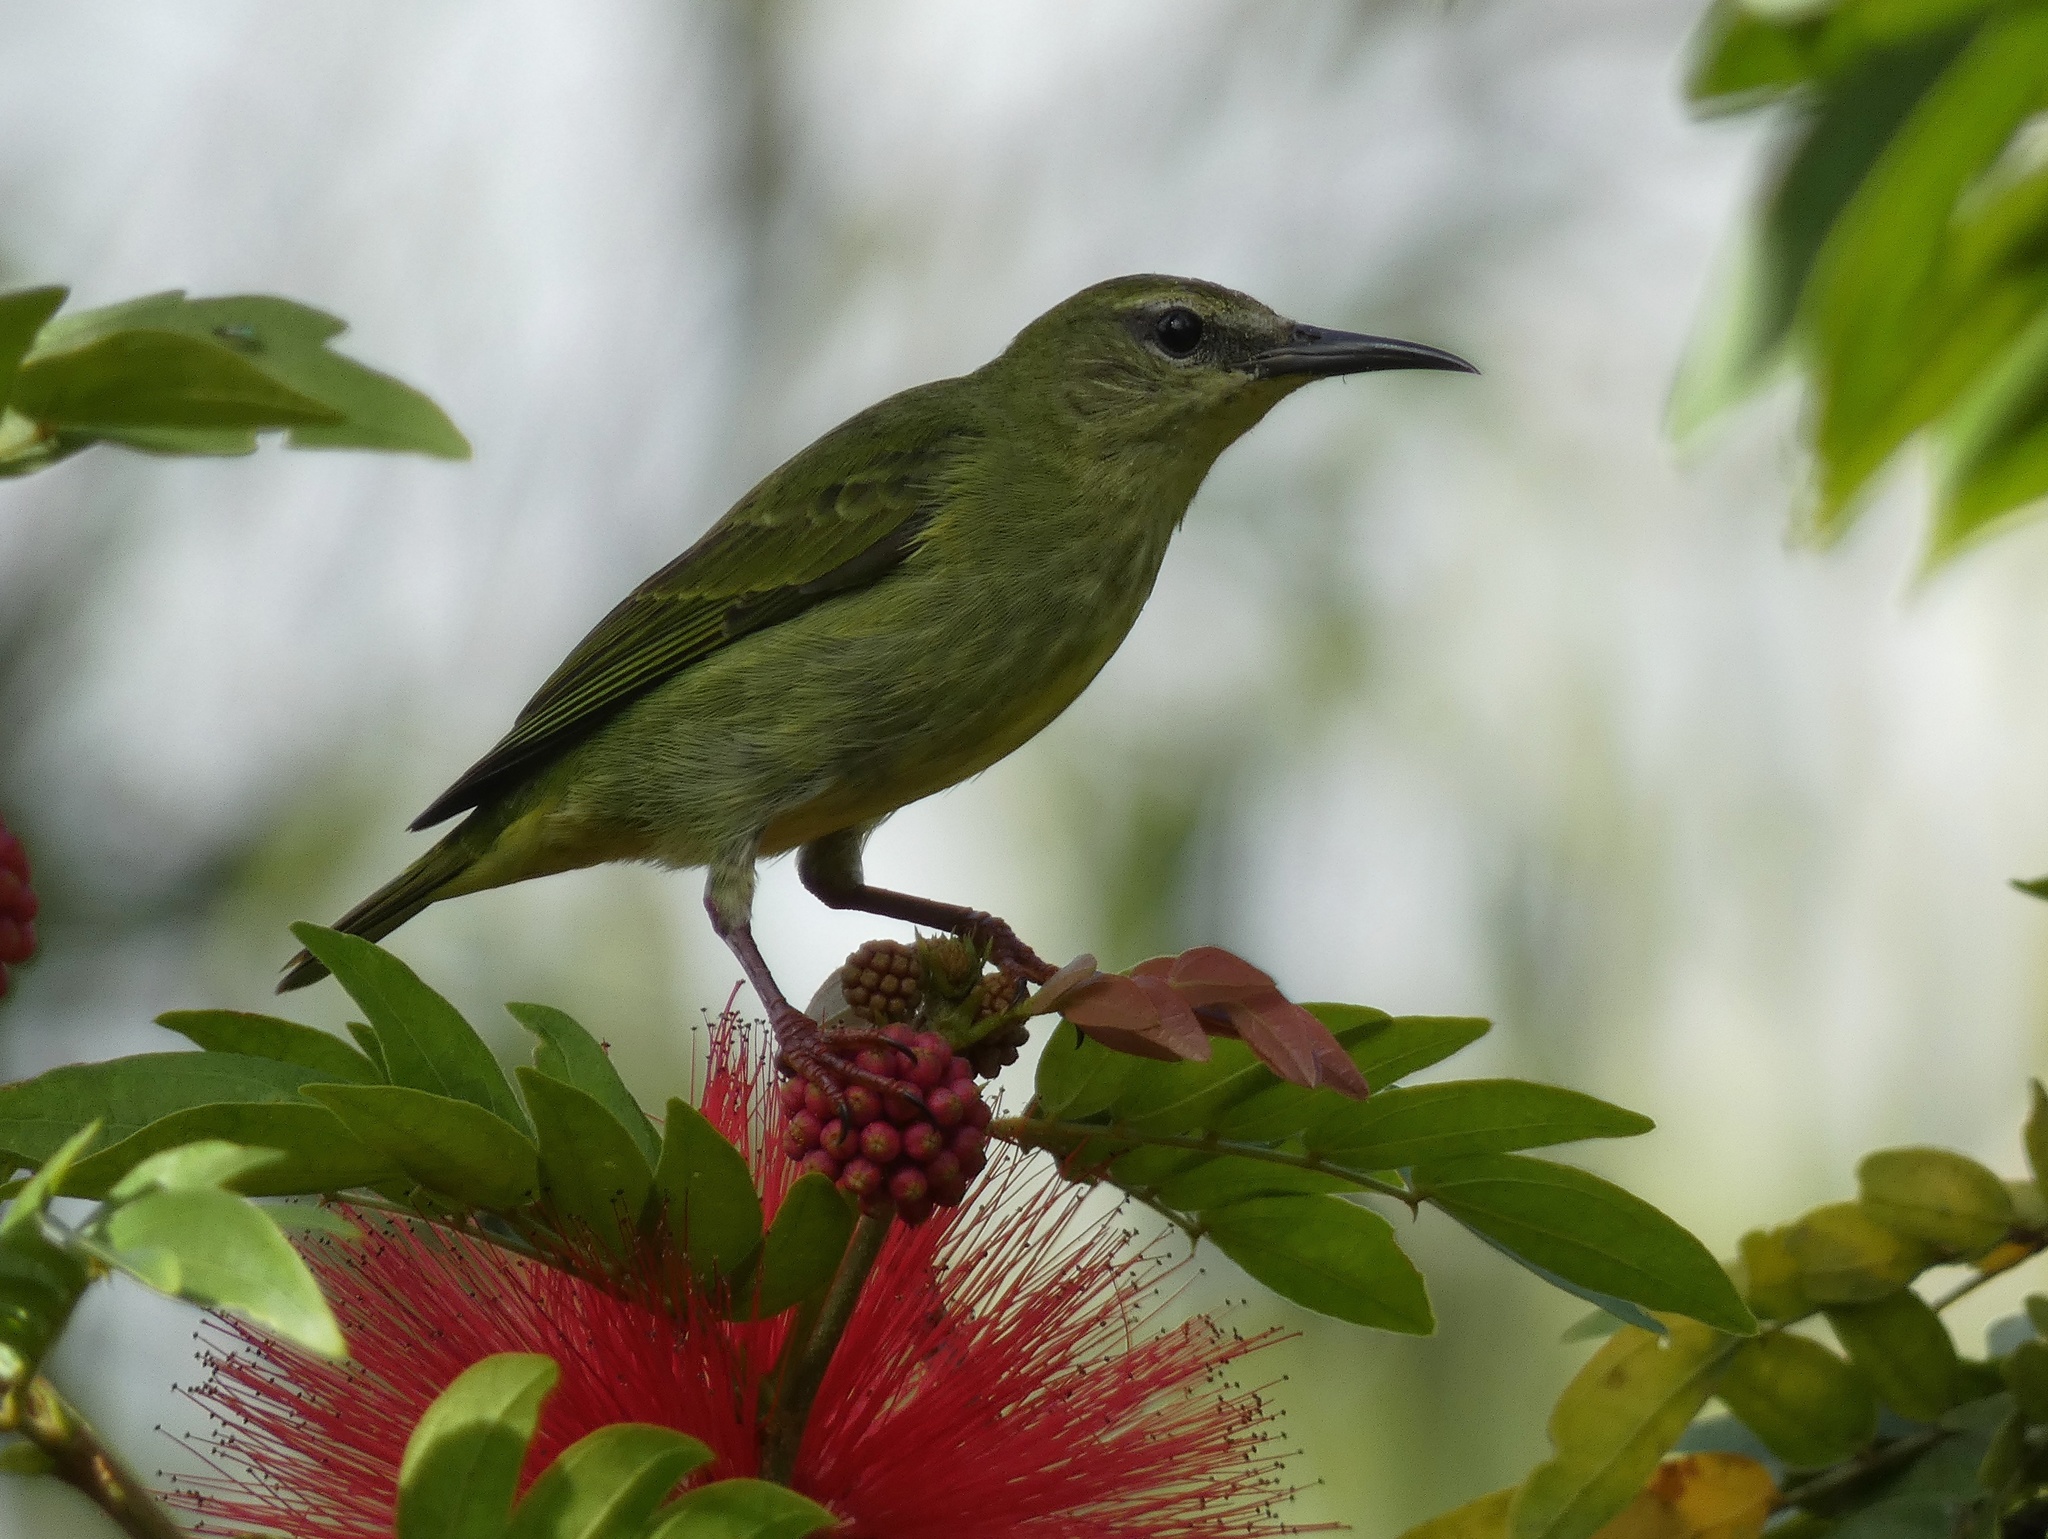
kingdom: Animalia
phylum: Chordata
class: Aves
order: Passeriformes
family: Thraupidae
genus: Cyanerpes
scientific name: Cyanerpes cyaneus
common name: Red-legged honeycreeper
